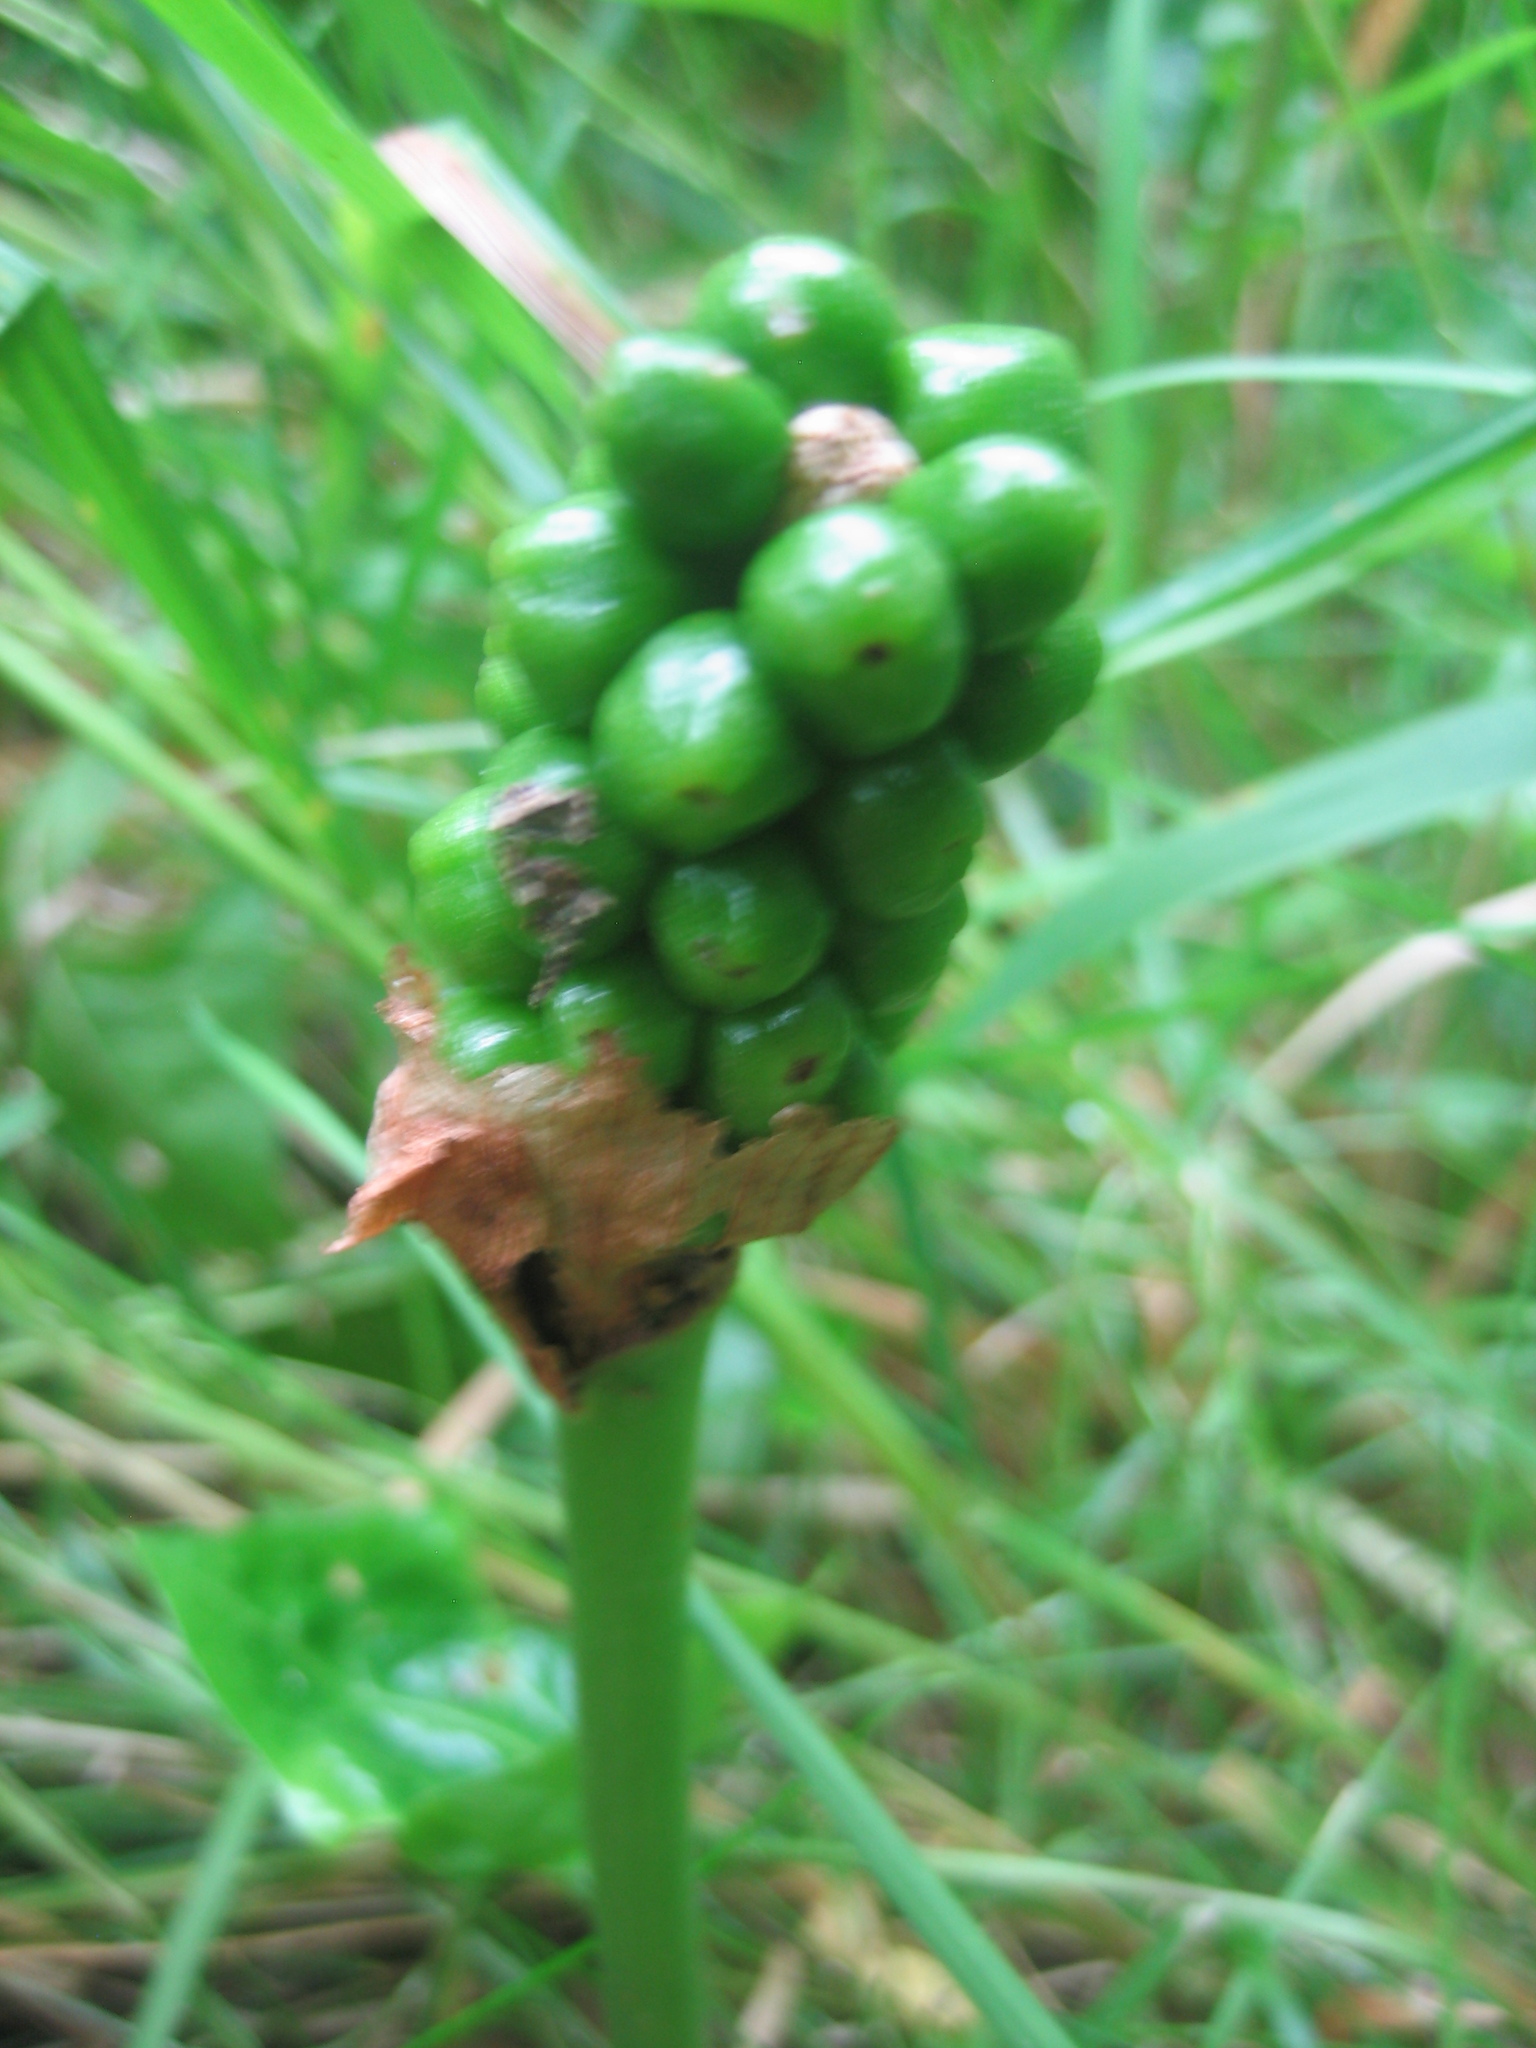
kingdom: Plantae
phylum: Tracheophyta
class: Liliopsida
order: Alismatales
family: Araceae
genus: Arum
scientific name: Arum maculatum
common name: Lords-and-ladies
